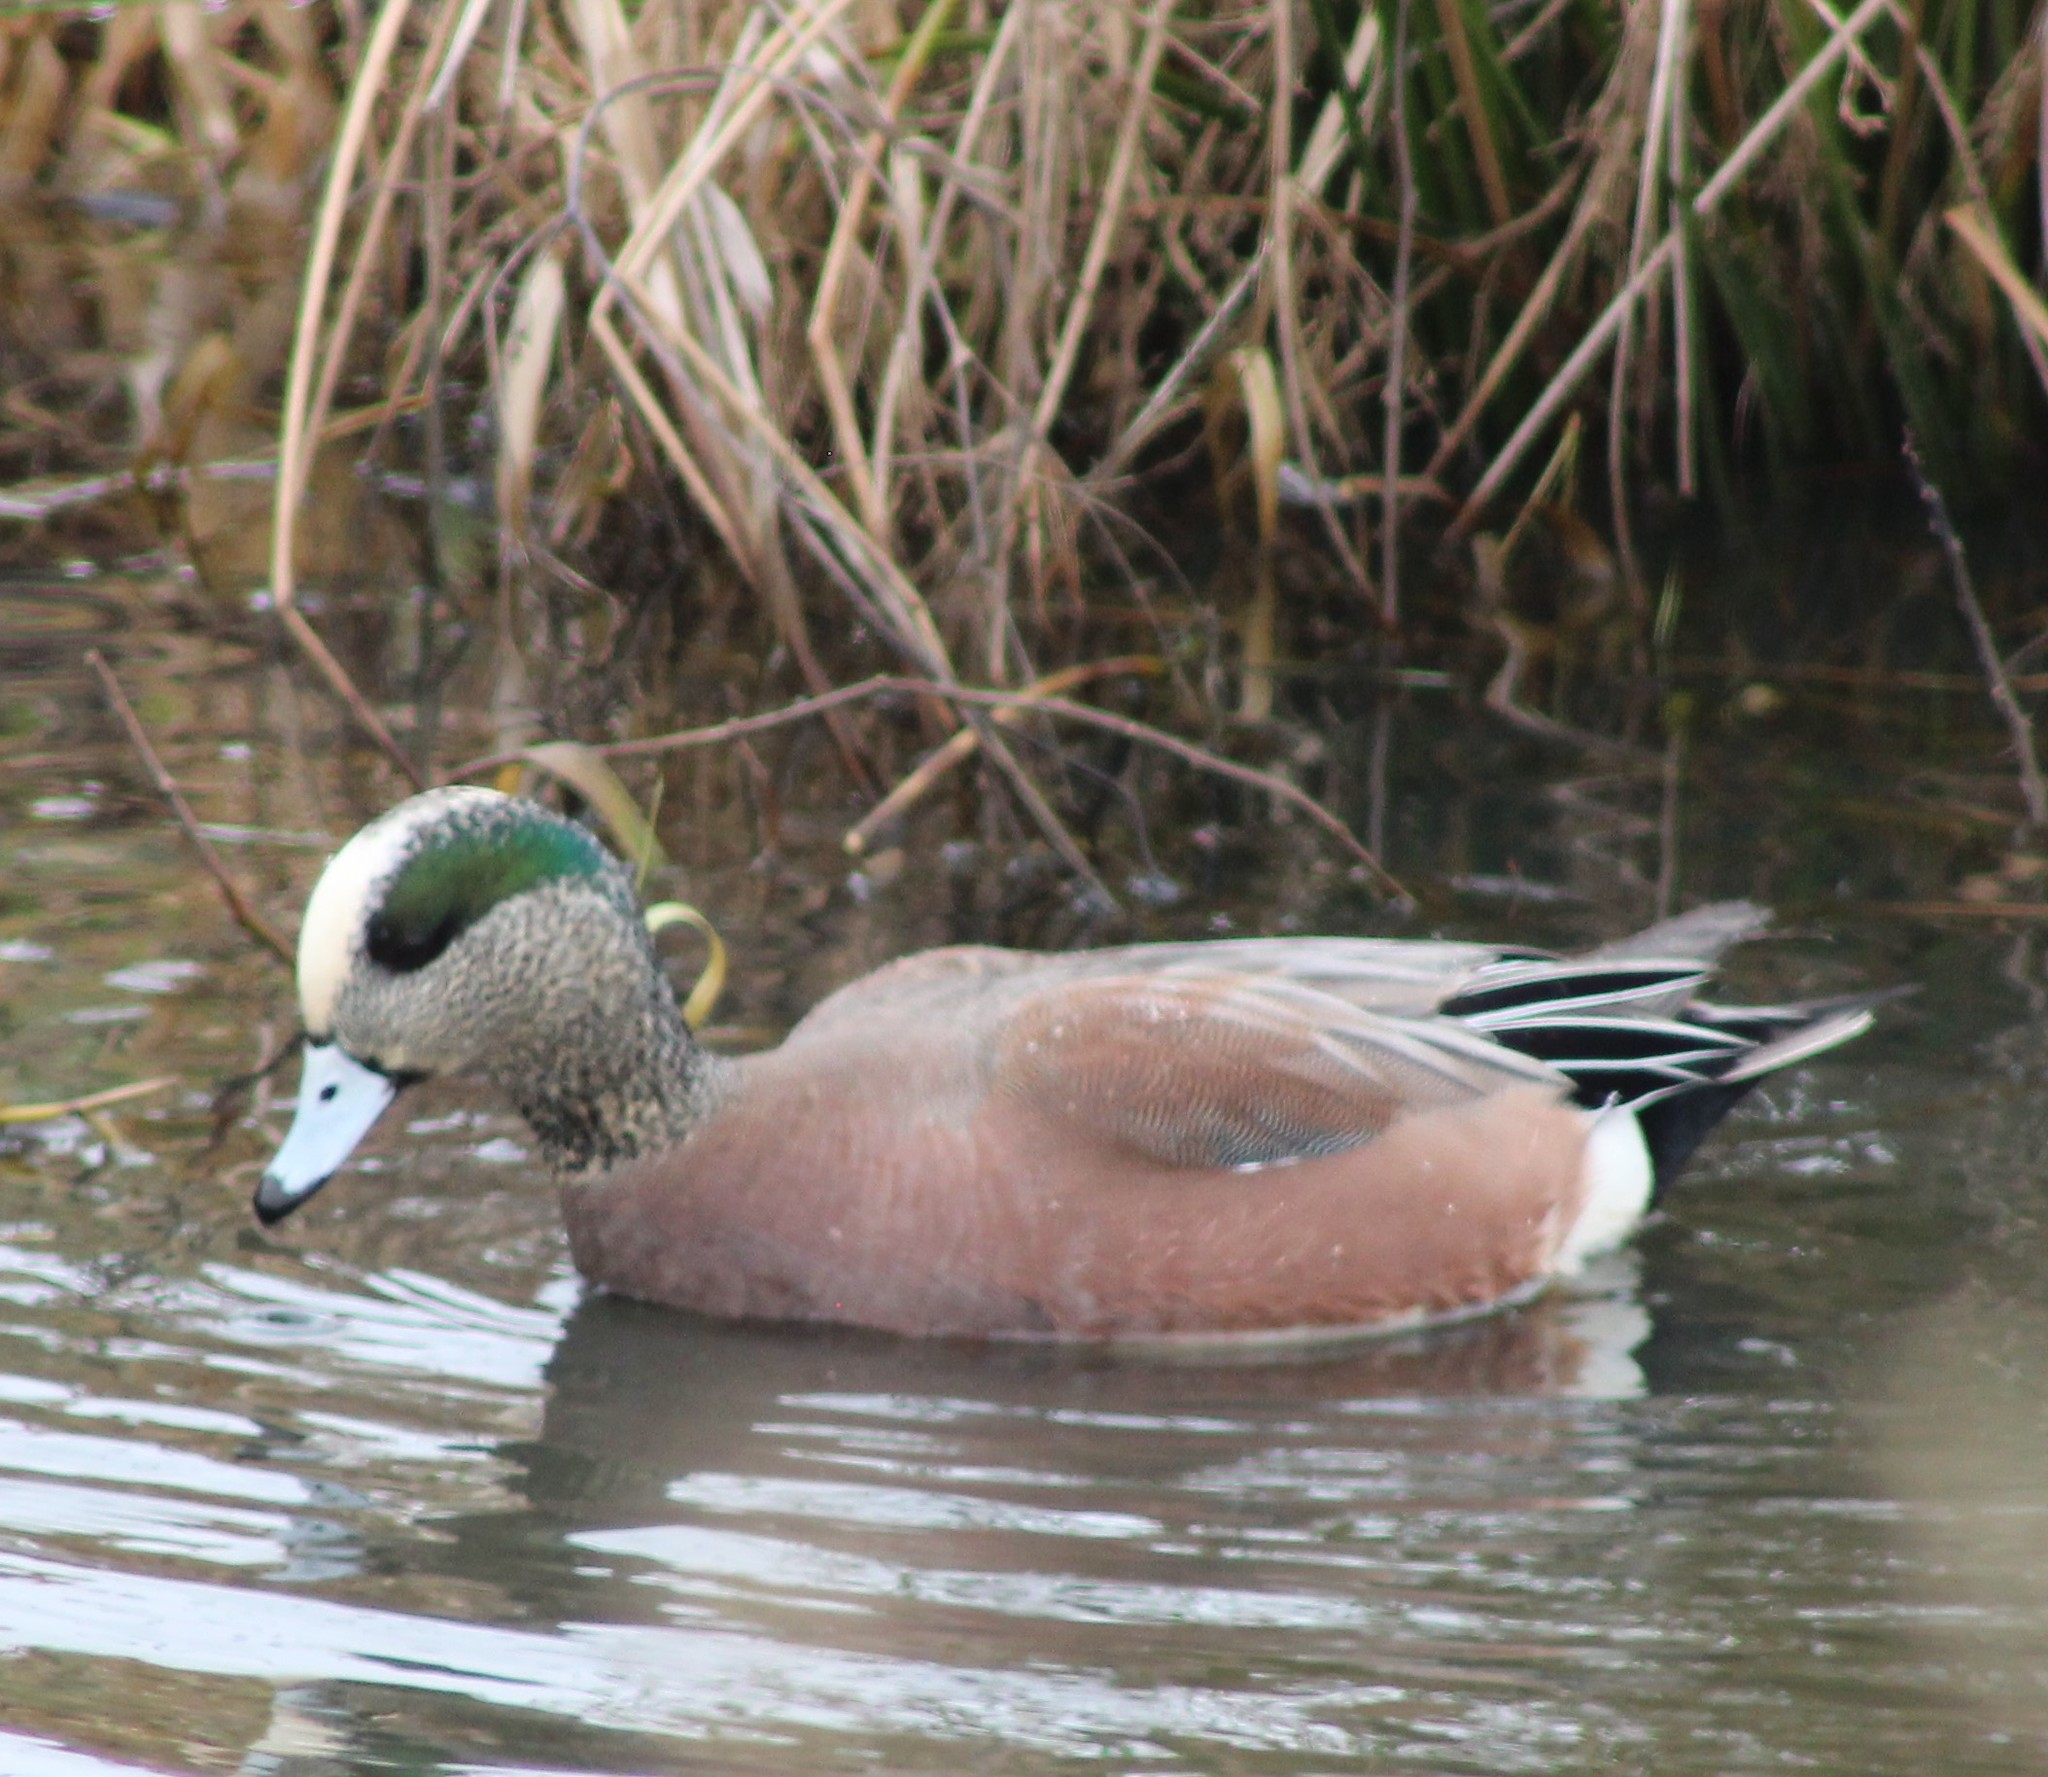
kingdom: Animalia
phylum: Chordata
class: Aves
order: Anseriformes
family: Anatidae
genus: Mareca
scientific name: Mareca americana
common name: American wigeon
